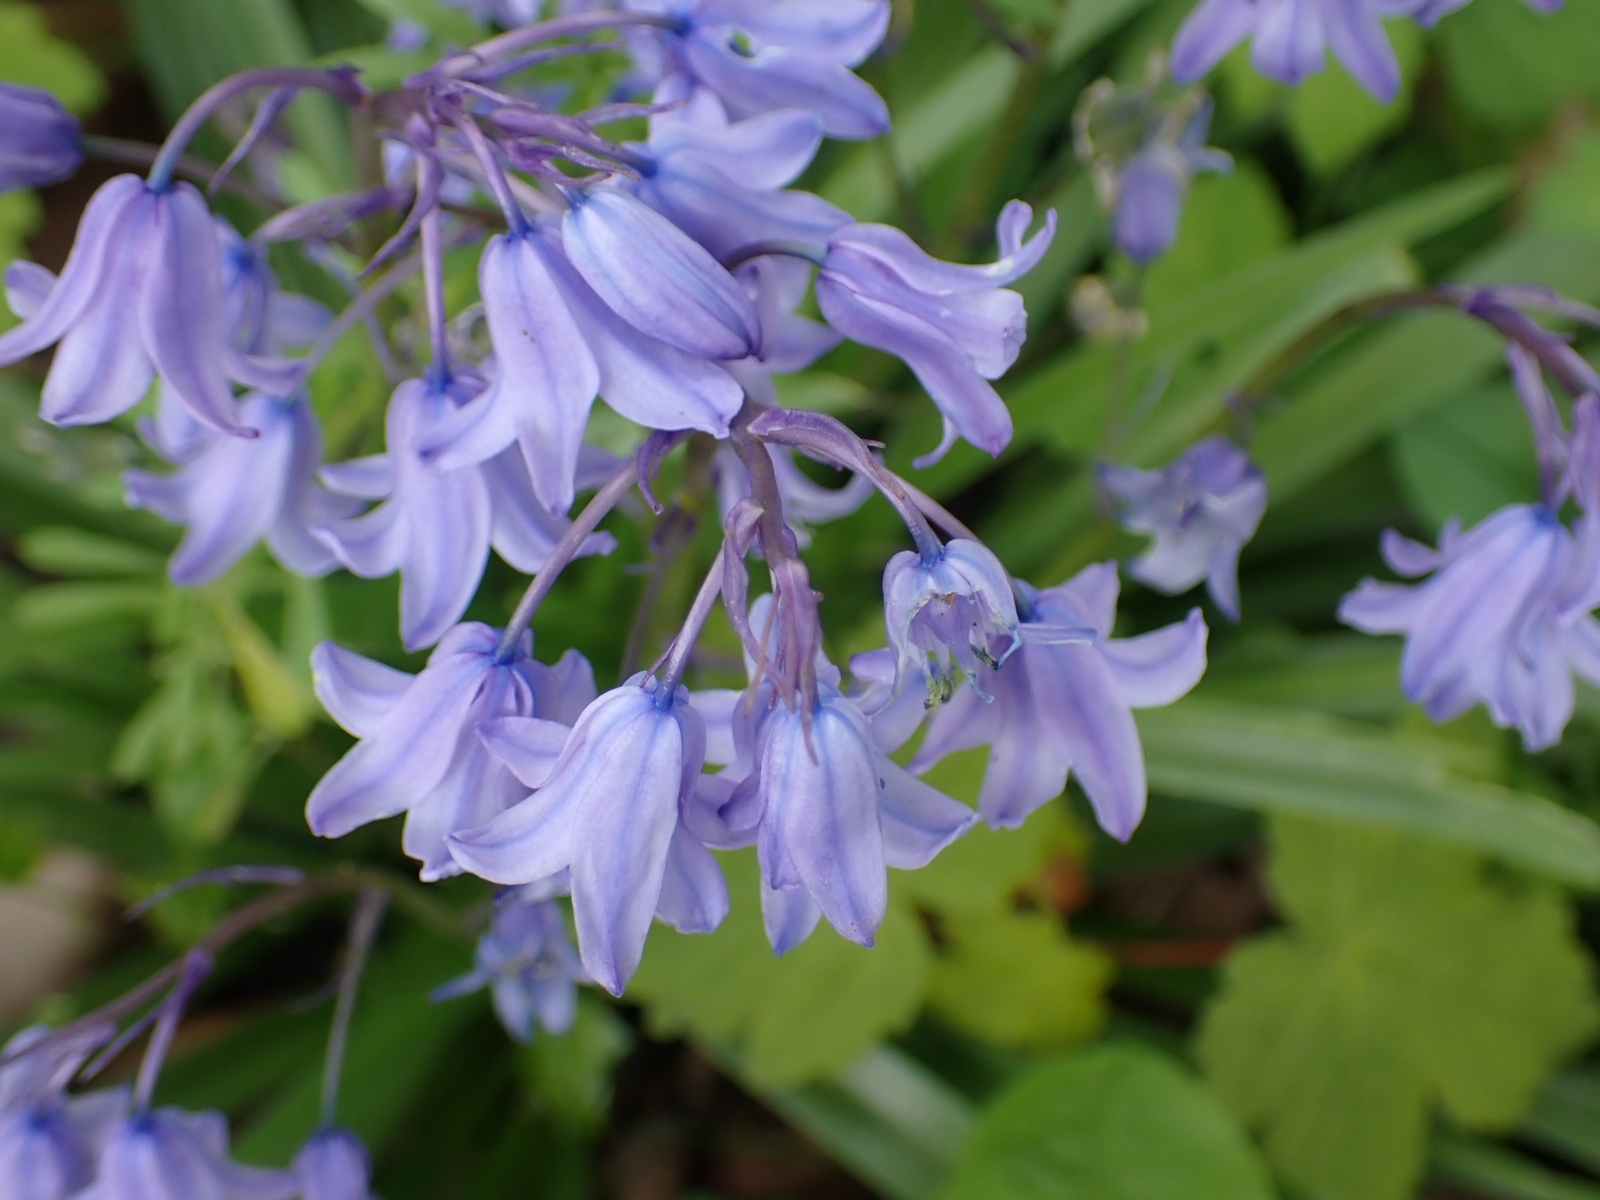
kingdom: Plantae
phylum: Tracheophyta
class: Liliopsida
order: Asparagales
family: Asparagaceae
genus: Hyacinthoides
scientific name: Hyacinthoides massartiana
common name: Hyacinthoides
